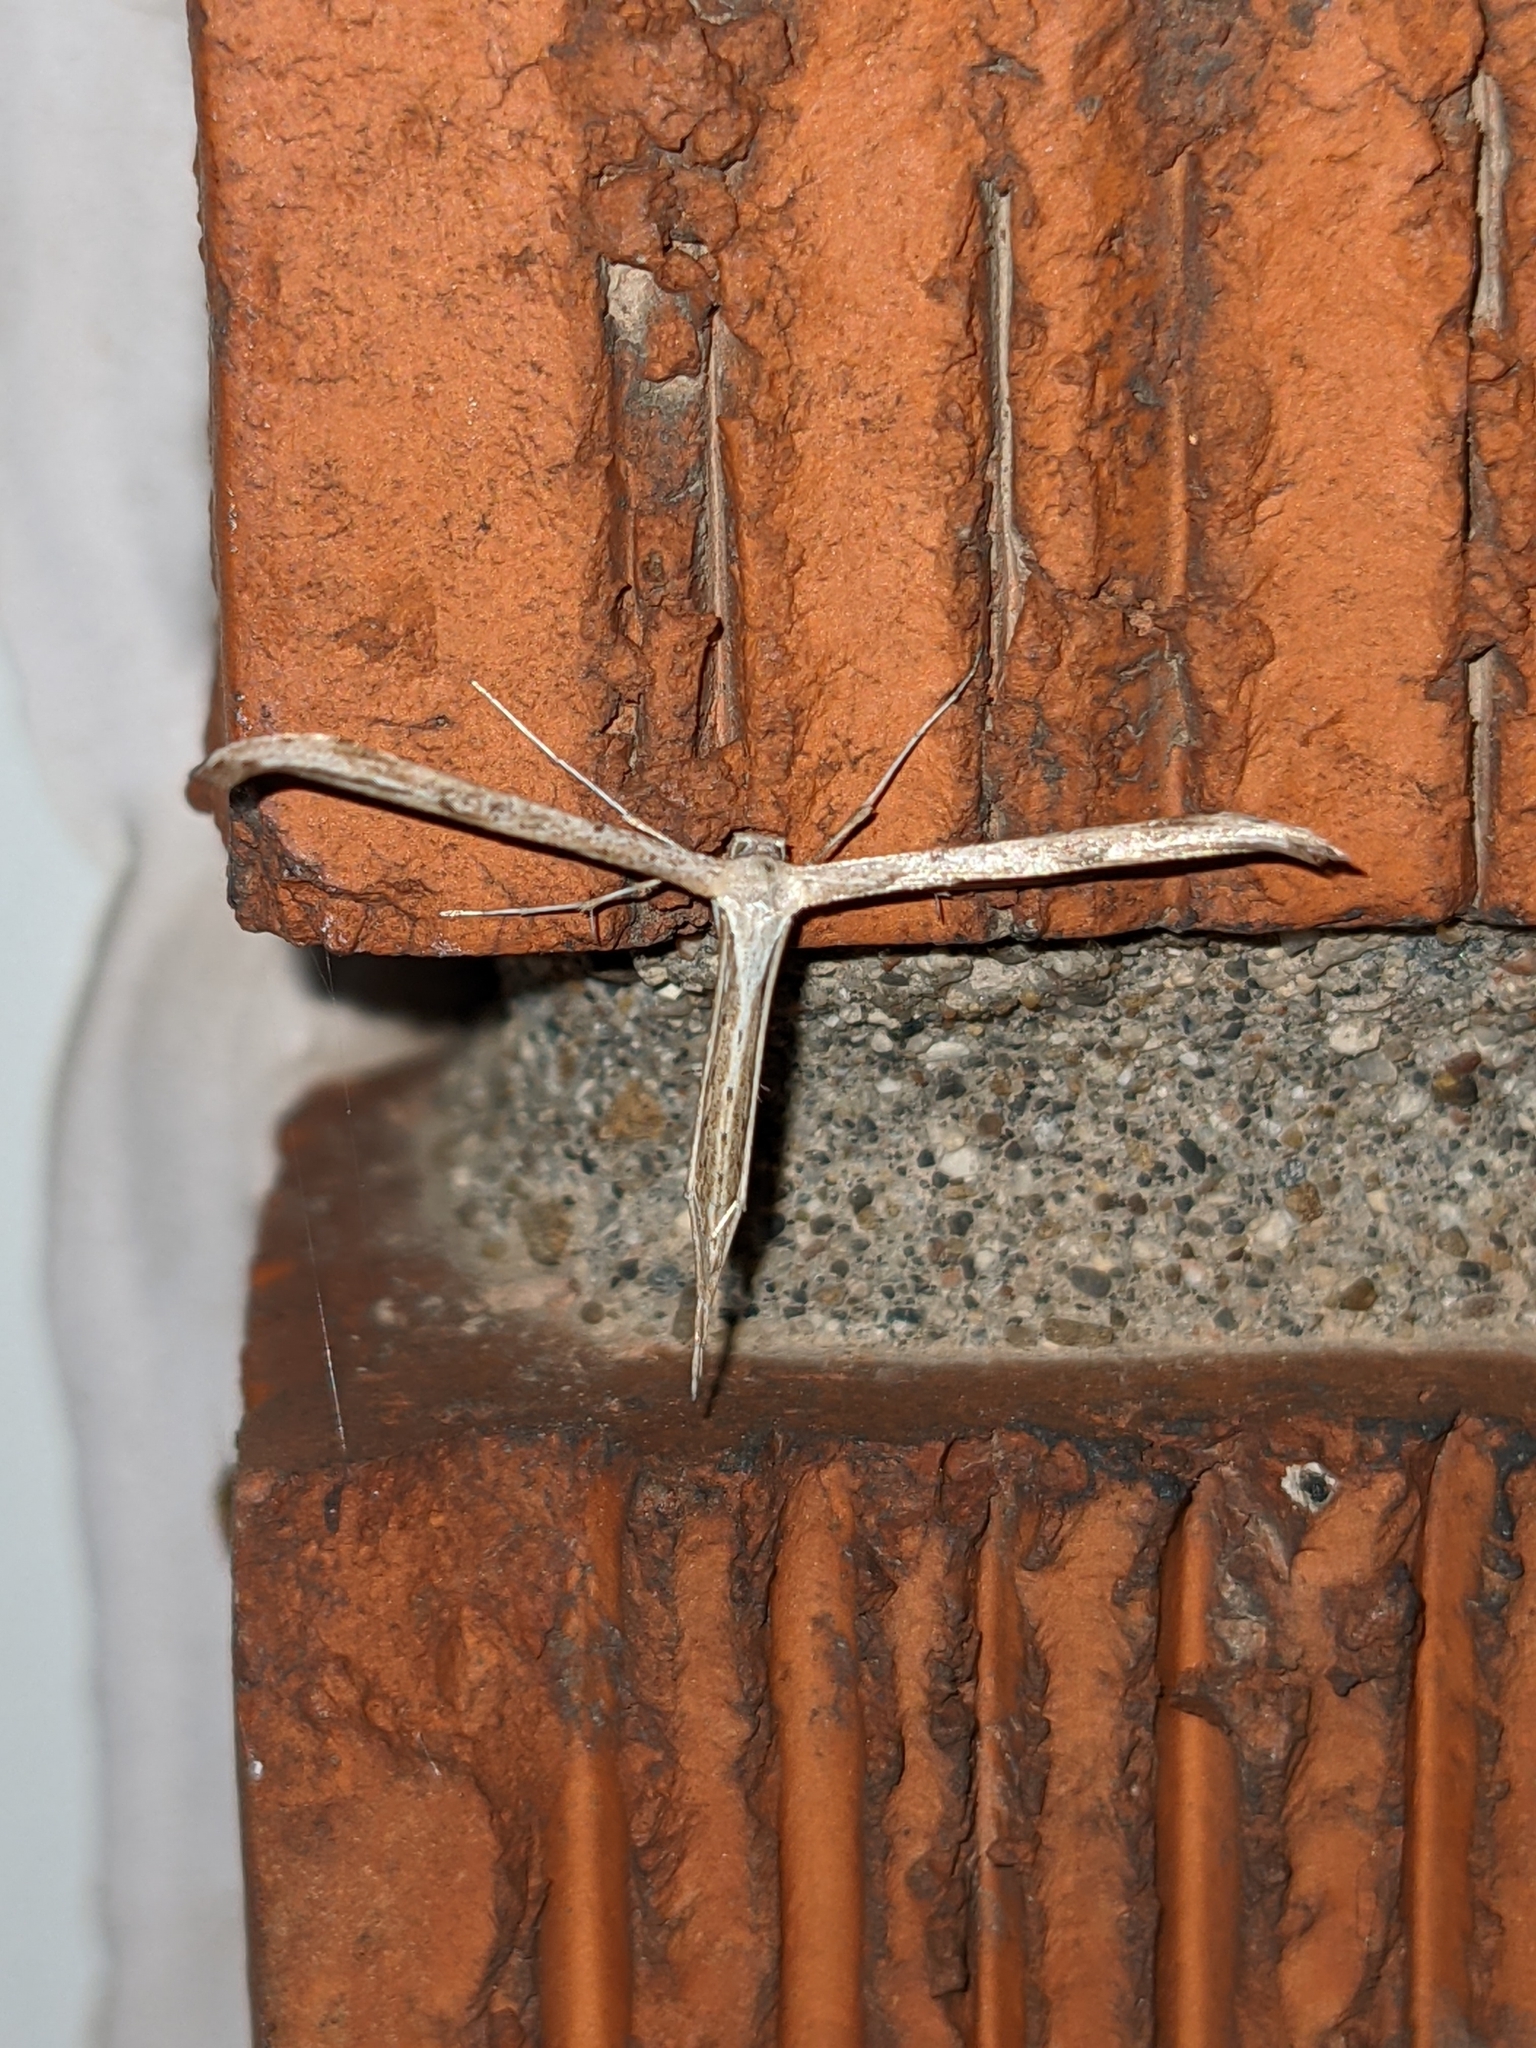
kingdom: Animalia
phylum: Arthropoda
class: Insecta
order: Lepidoptera
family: Pterophoridae
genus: Emmelina
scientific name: Emmelina monodactyla
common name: Common plume
